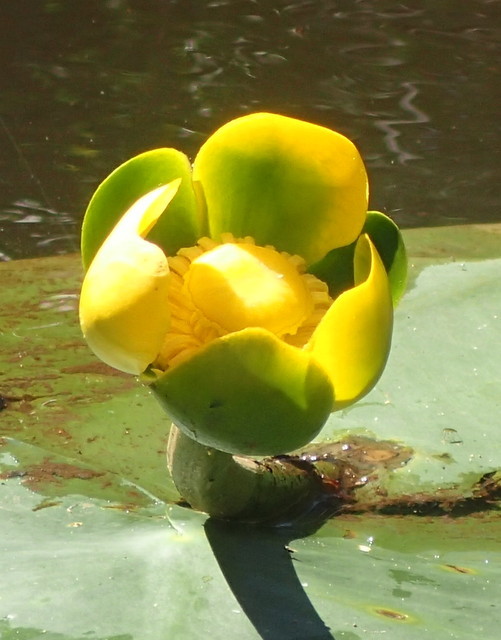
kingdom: Plantae
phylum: Tracheophyta
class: Magnoliopsida
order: Nymphaeales
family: Nymphaeaceae
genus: Nuphar
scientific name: Nuphar advena
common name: Spatter-dock
